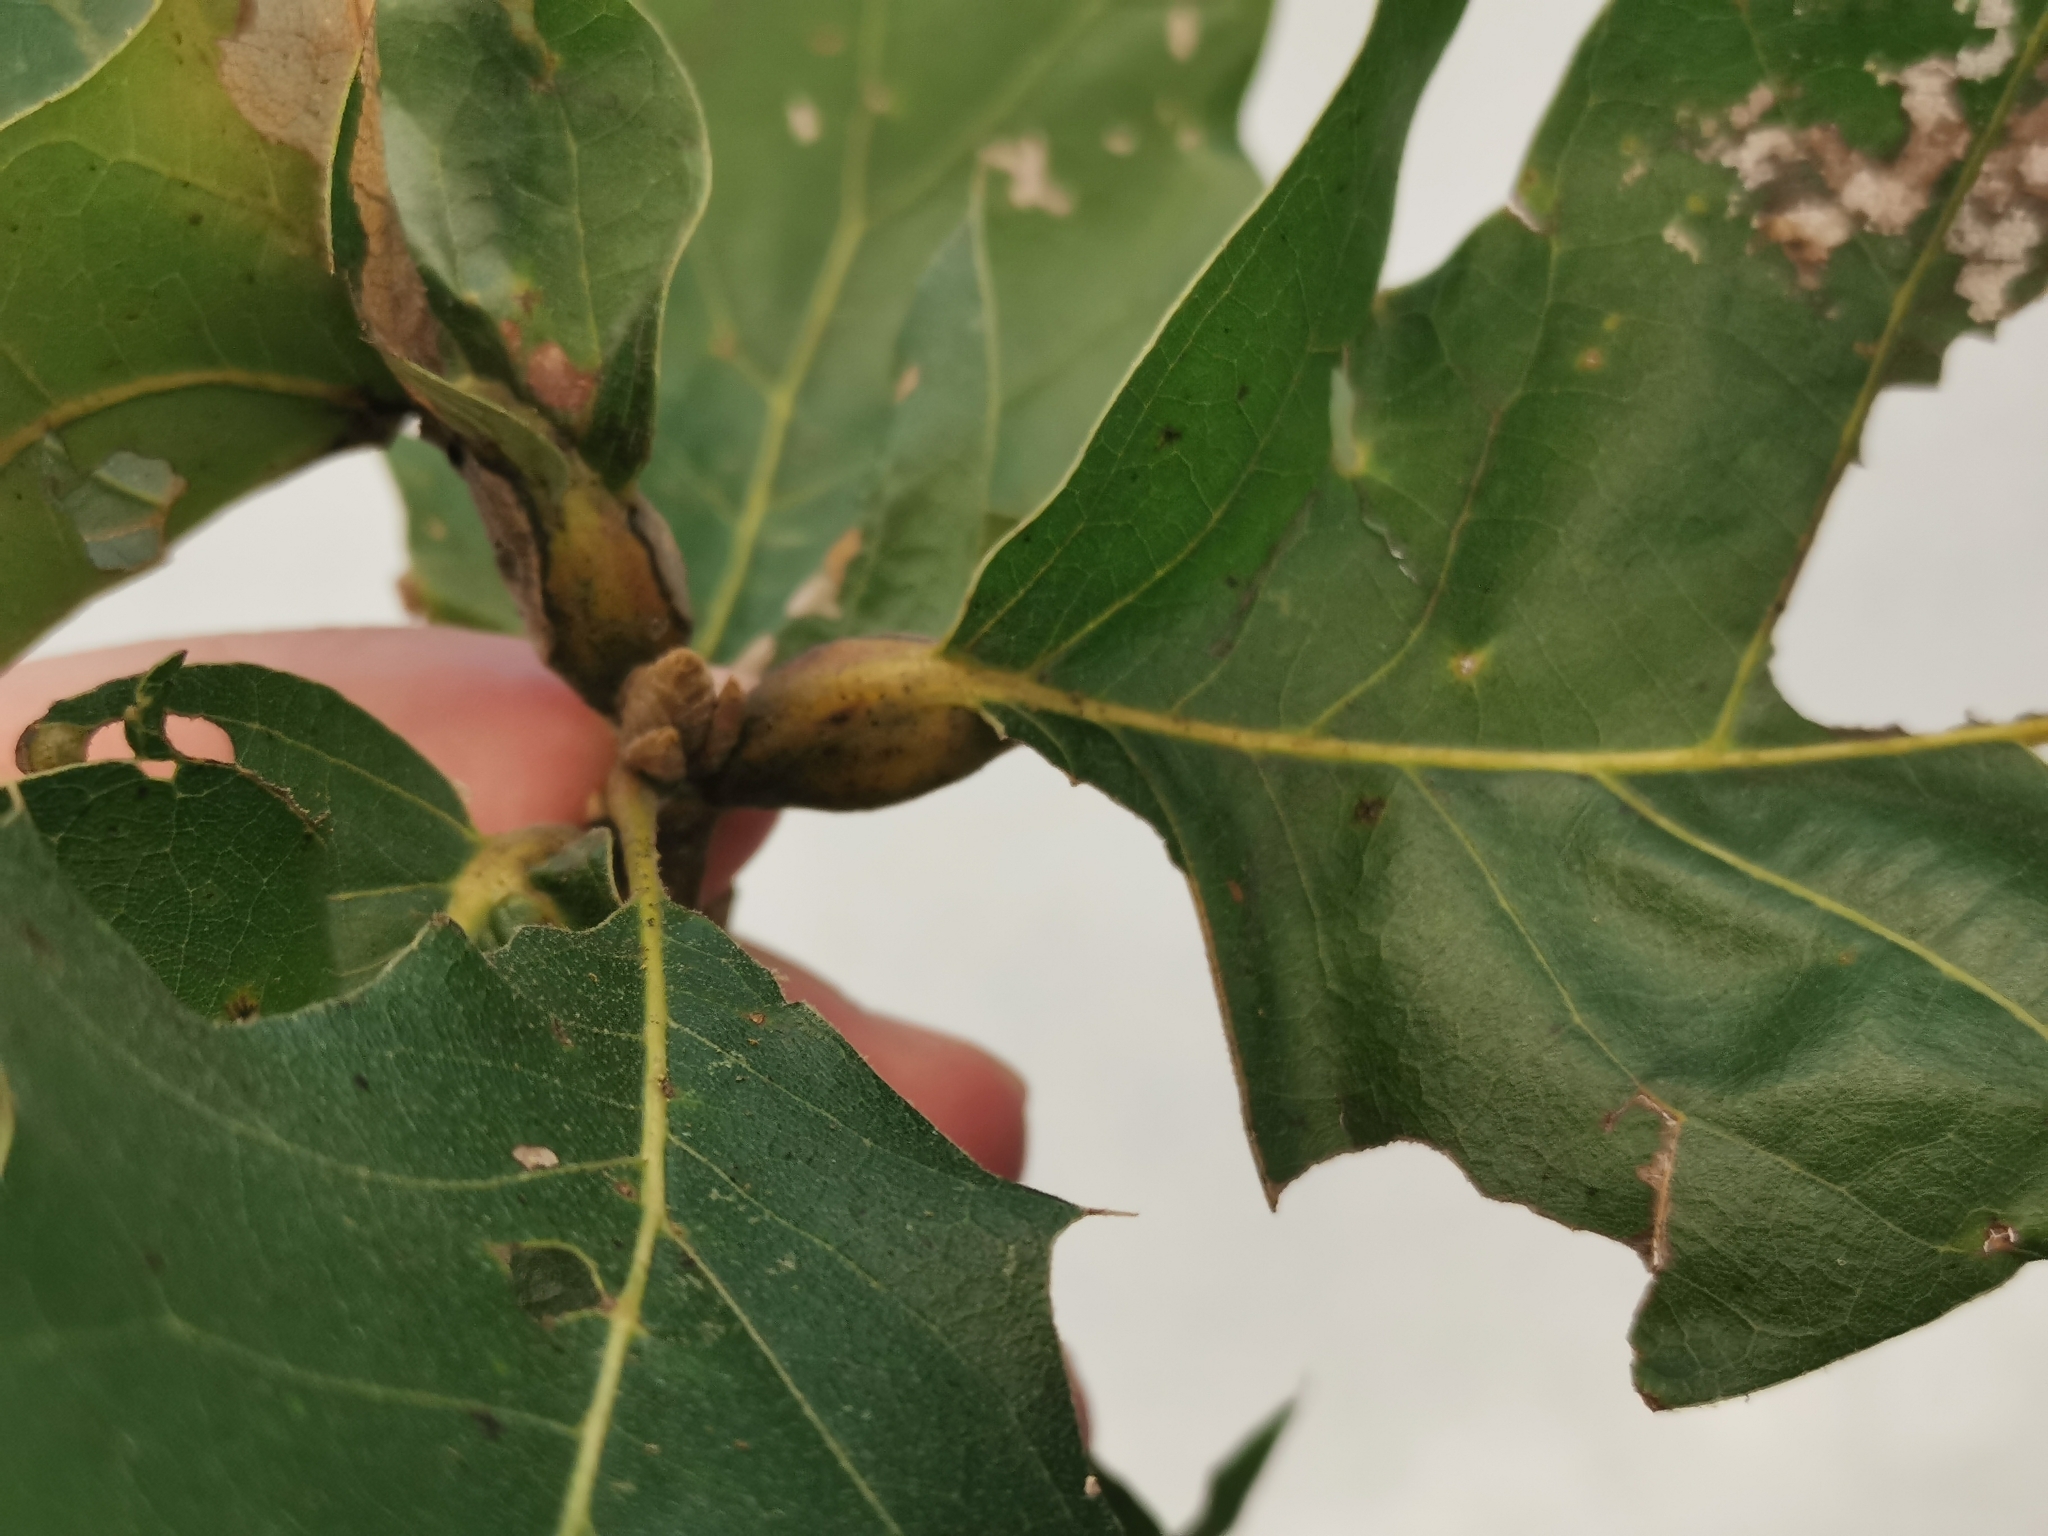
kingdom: Animalia
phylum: Arthropoda
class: Insecta
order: Hymenoptera
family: Cynipidae
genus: Melikaiella
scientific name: Melikaiella tumifica
